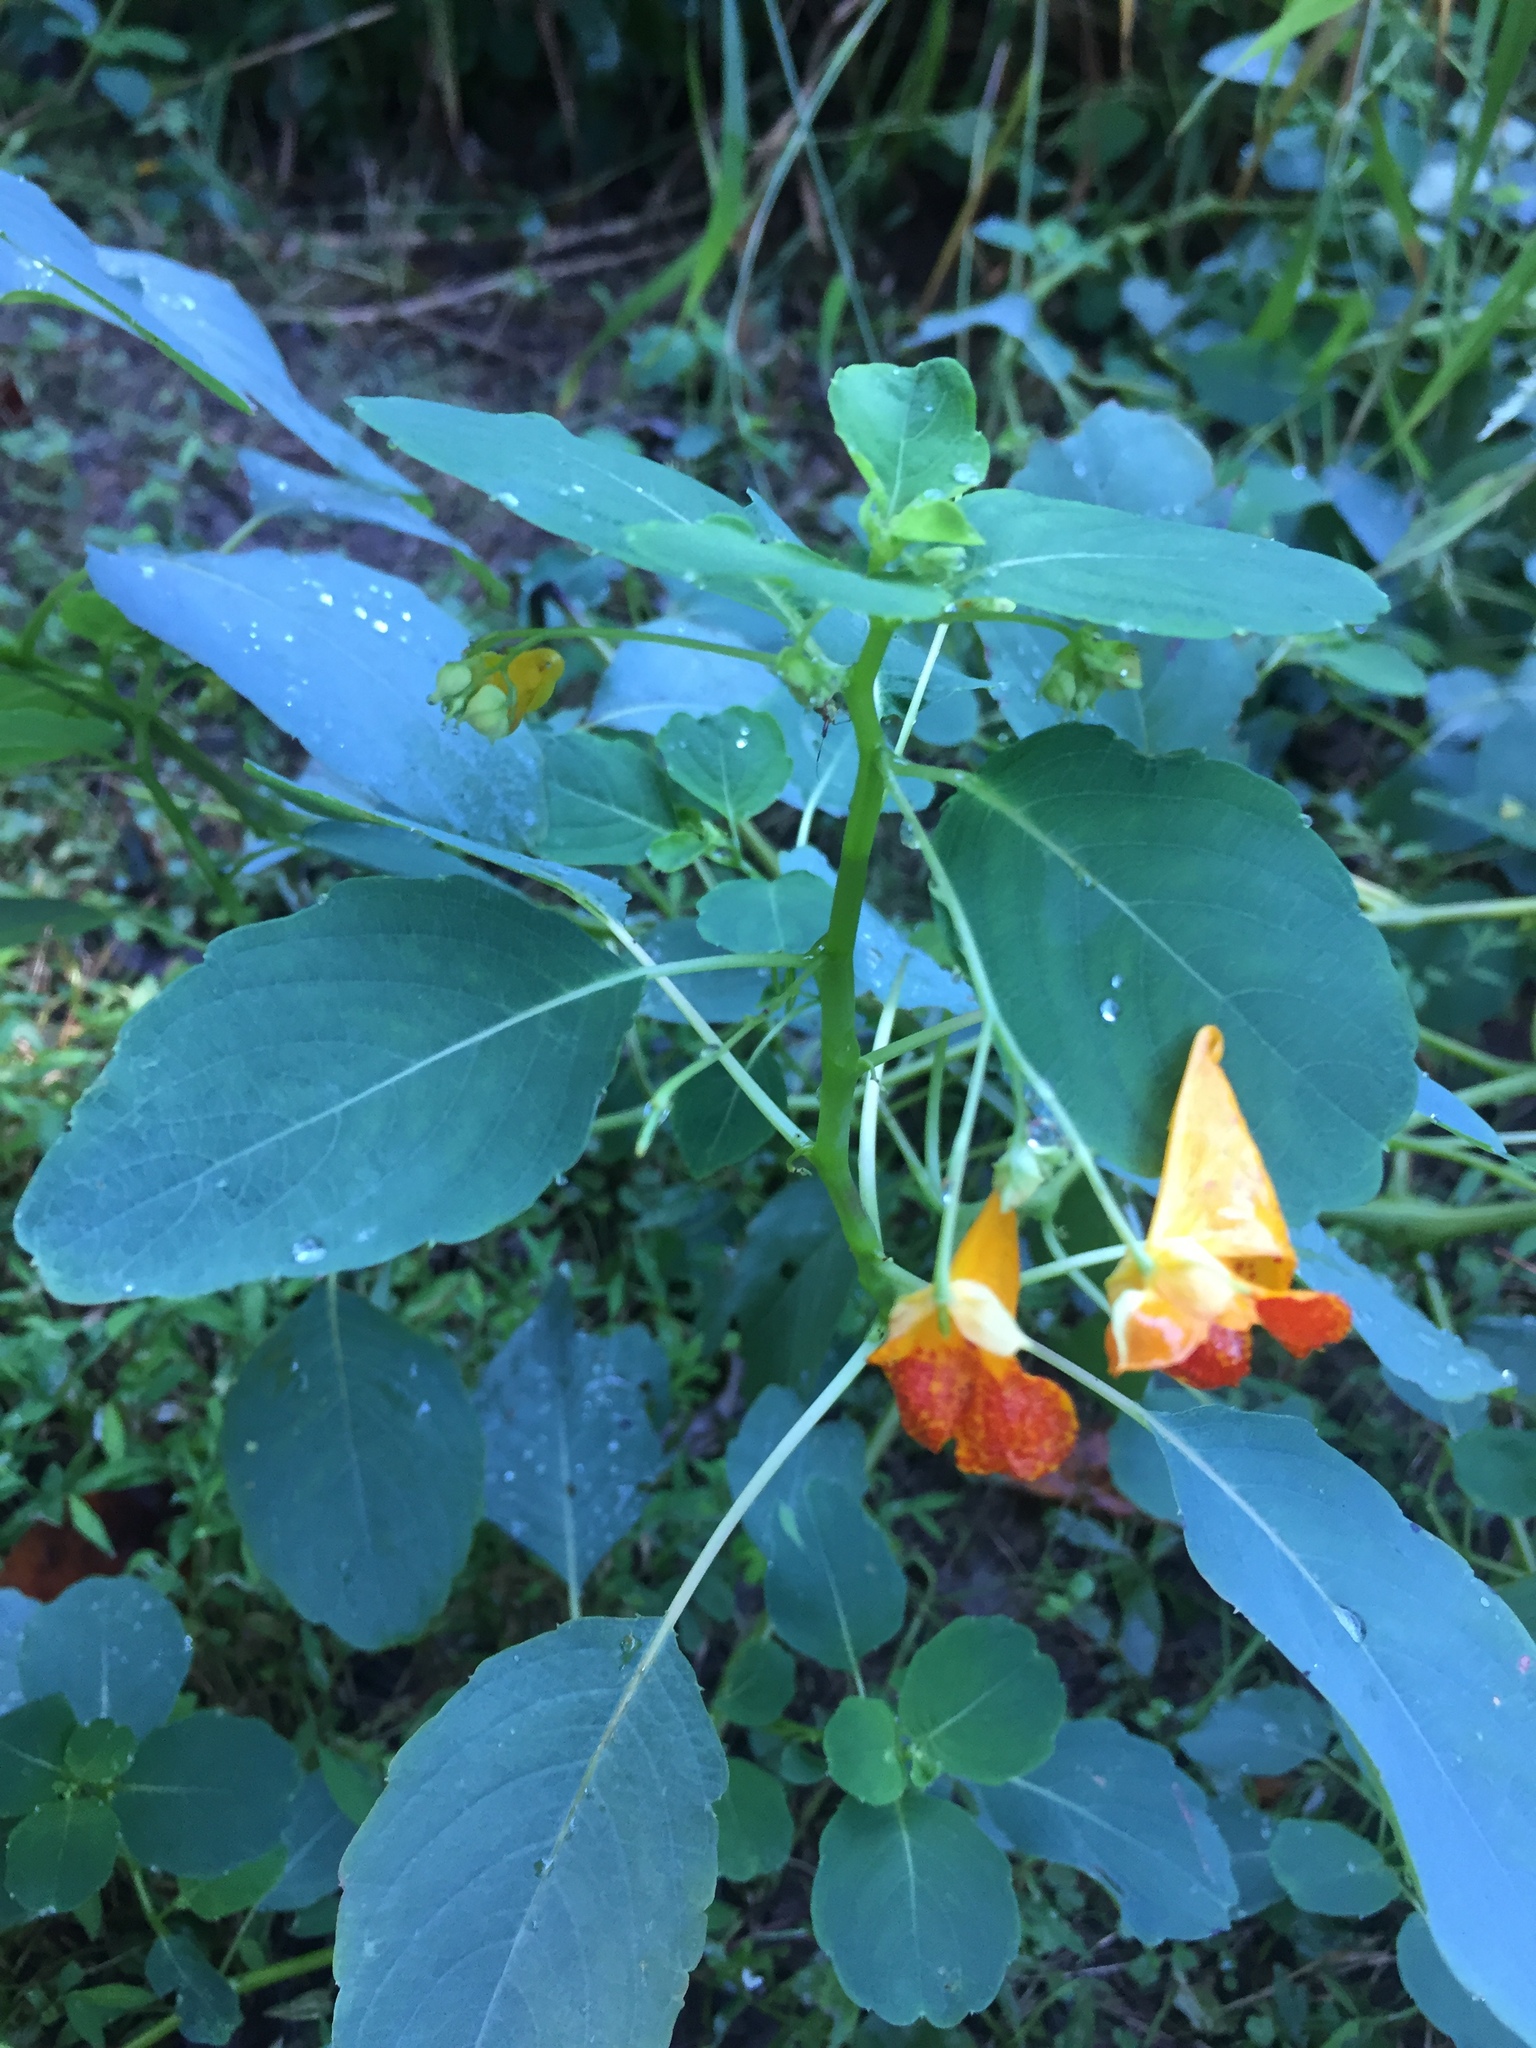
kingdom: Plantae
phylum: Tracheophyta
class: Magnoliopsida
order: Ericales
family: Balsaminaceae
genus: Impatiens
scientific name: Impatiens capensis
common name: Orange balsam
